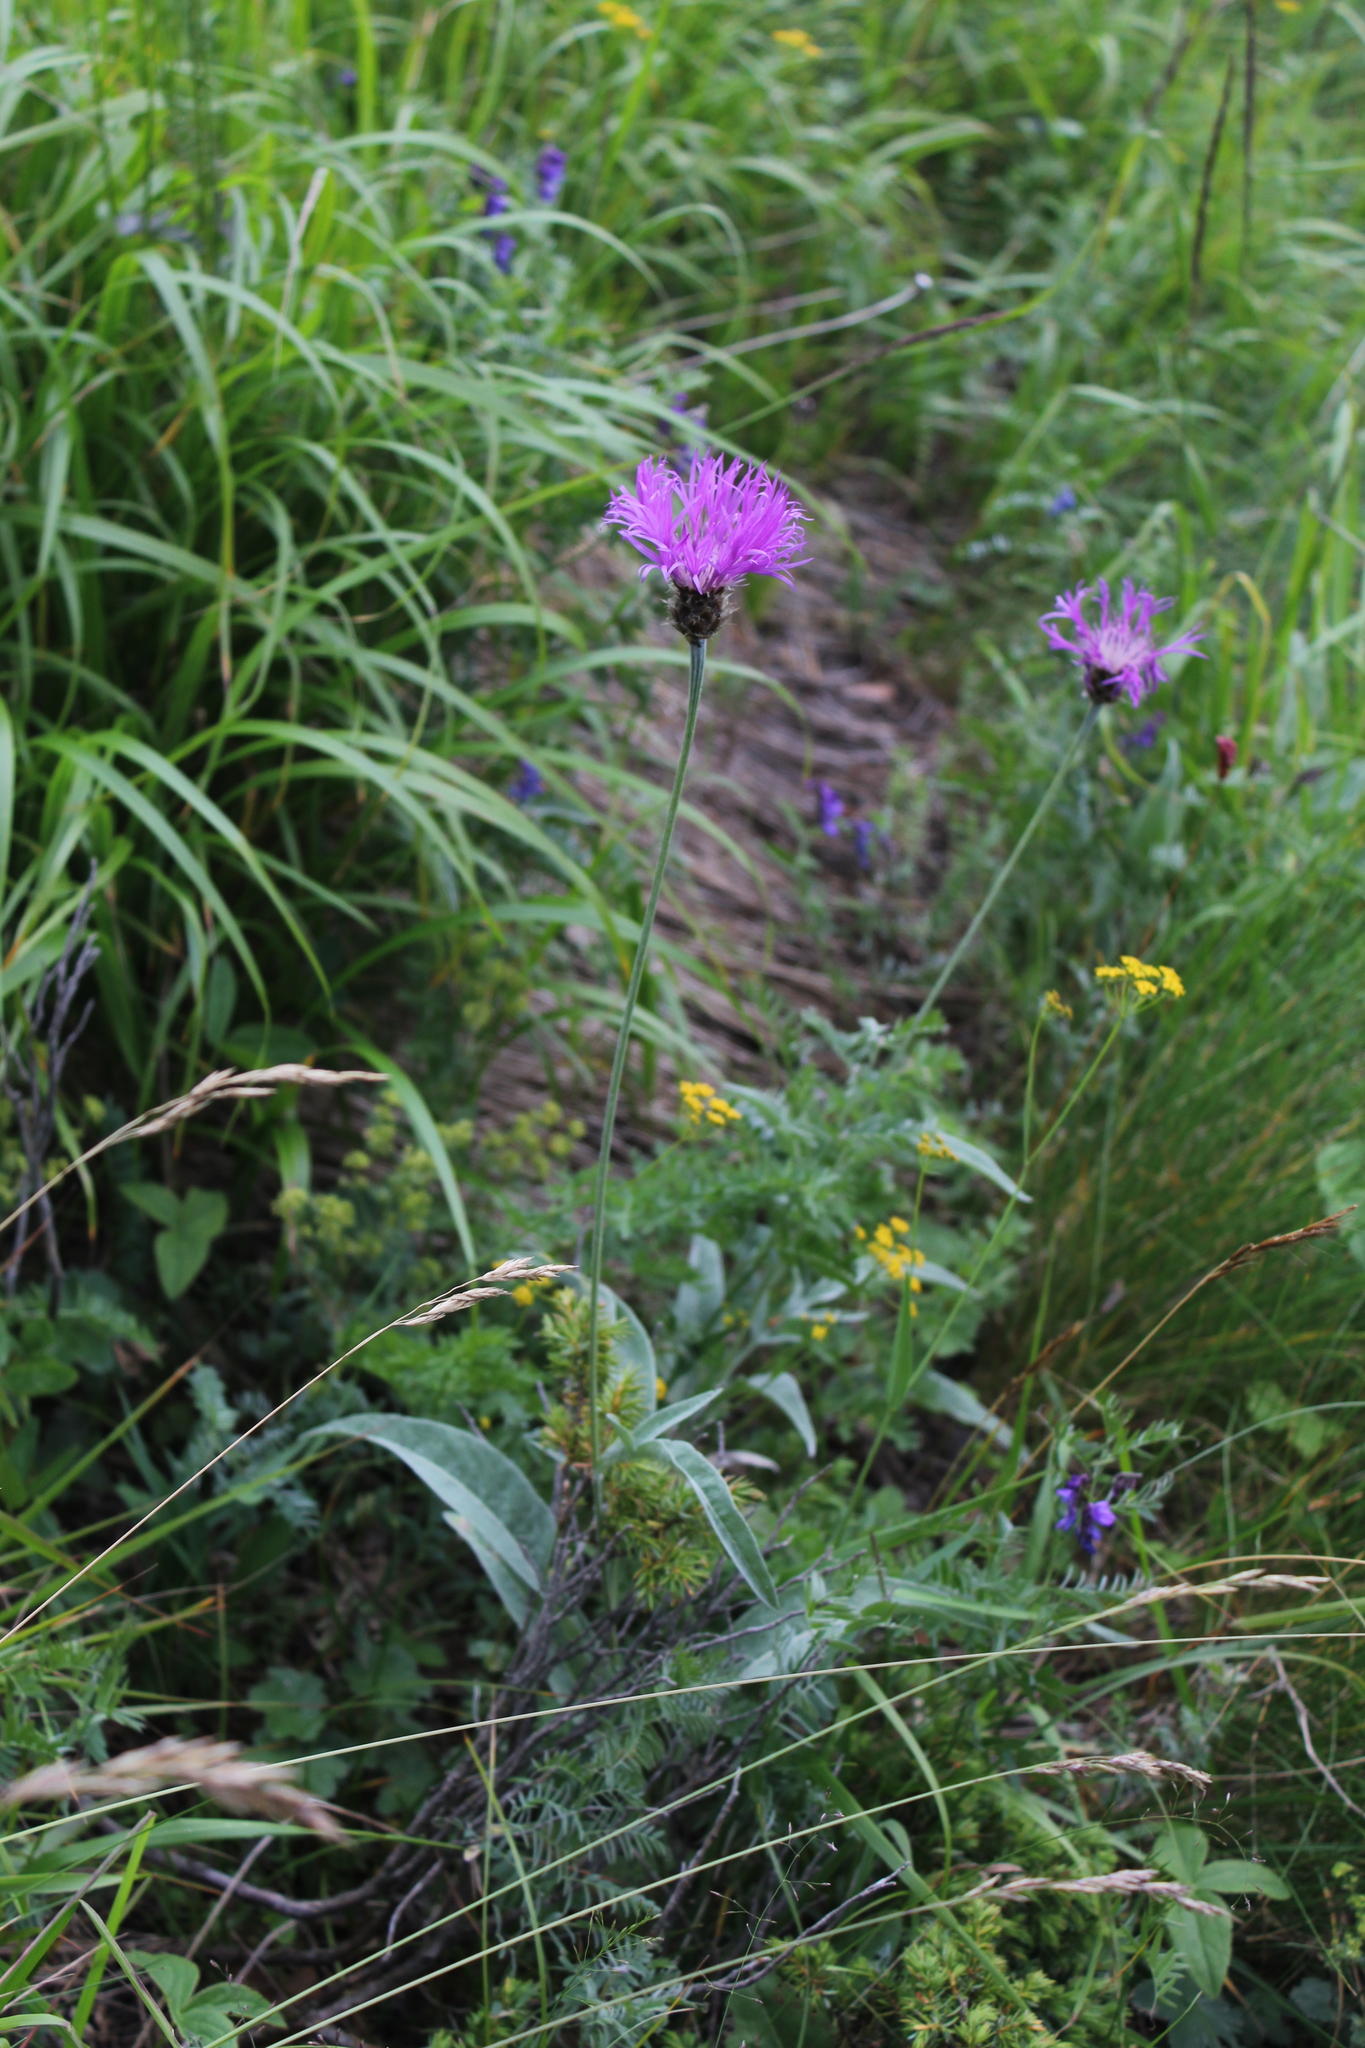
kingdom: Plantae
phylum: Tracheophyta
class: Magnoliopsida
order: Asterales
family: Asteraceae
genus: Psephellus
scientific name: Psephellus vvedenskii
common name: Solnechnik
